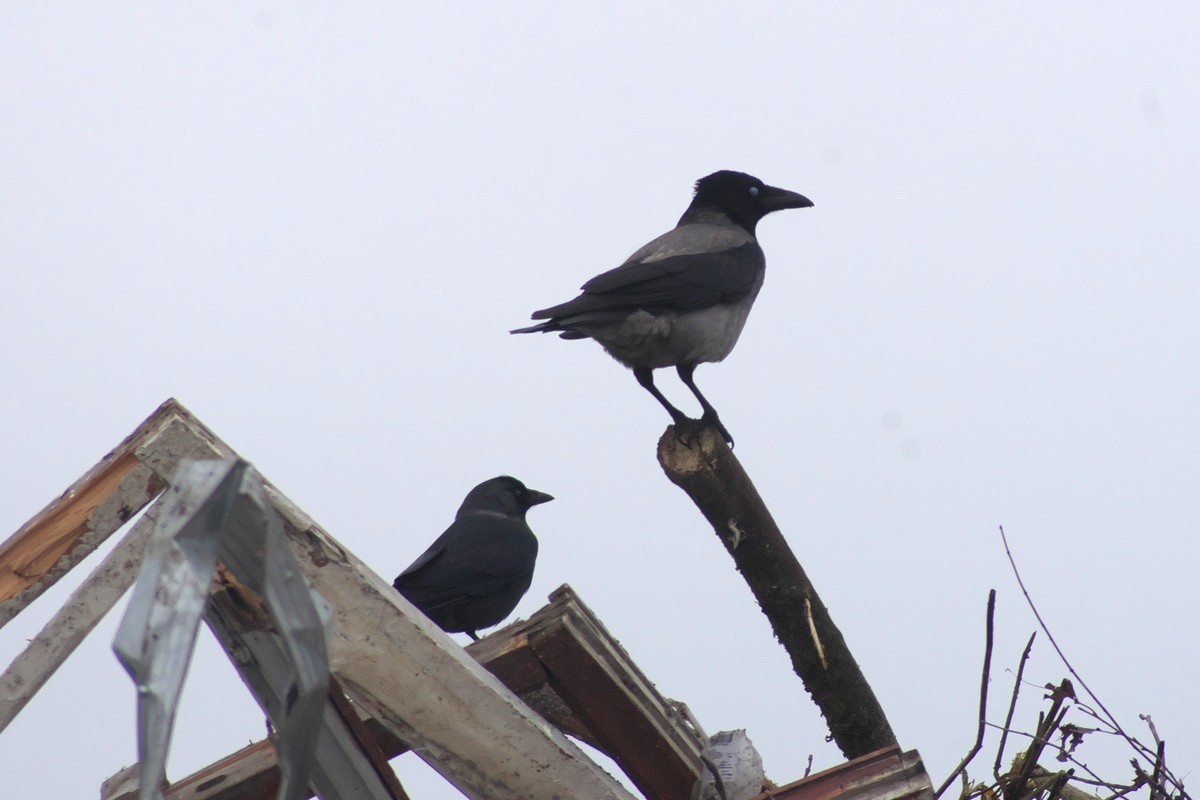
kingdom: Animalia
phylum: Chordata
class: Aves
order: Passeriformes
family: Corvidae
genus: Corvus
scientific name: Corvus cornix
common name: Hooded crow
